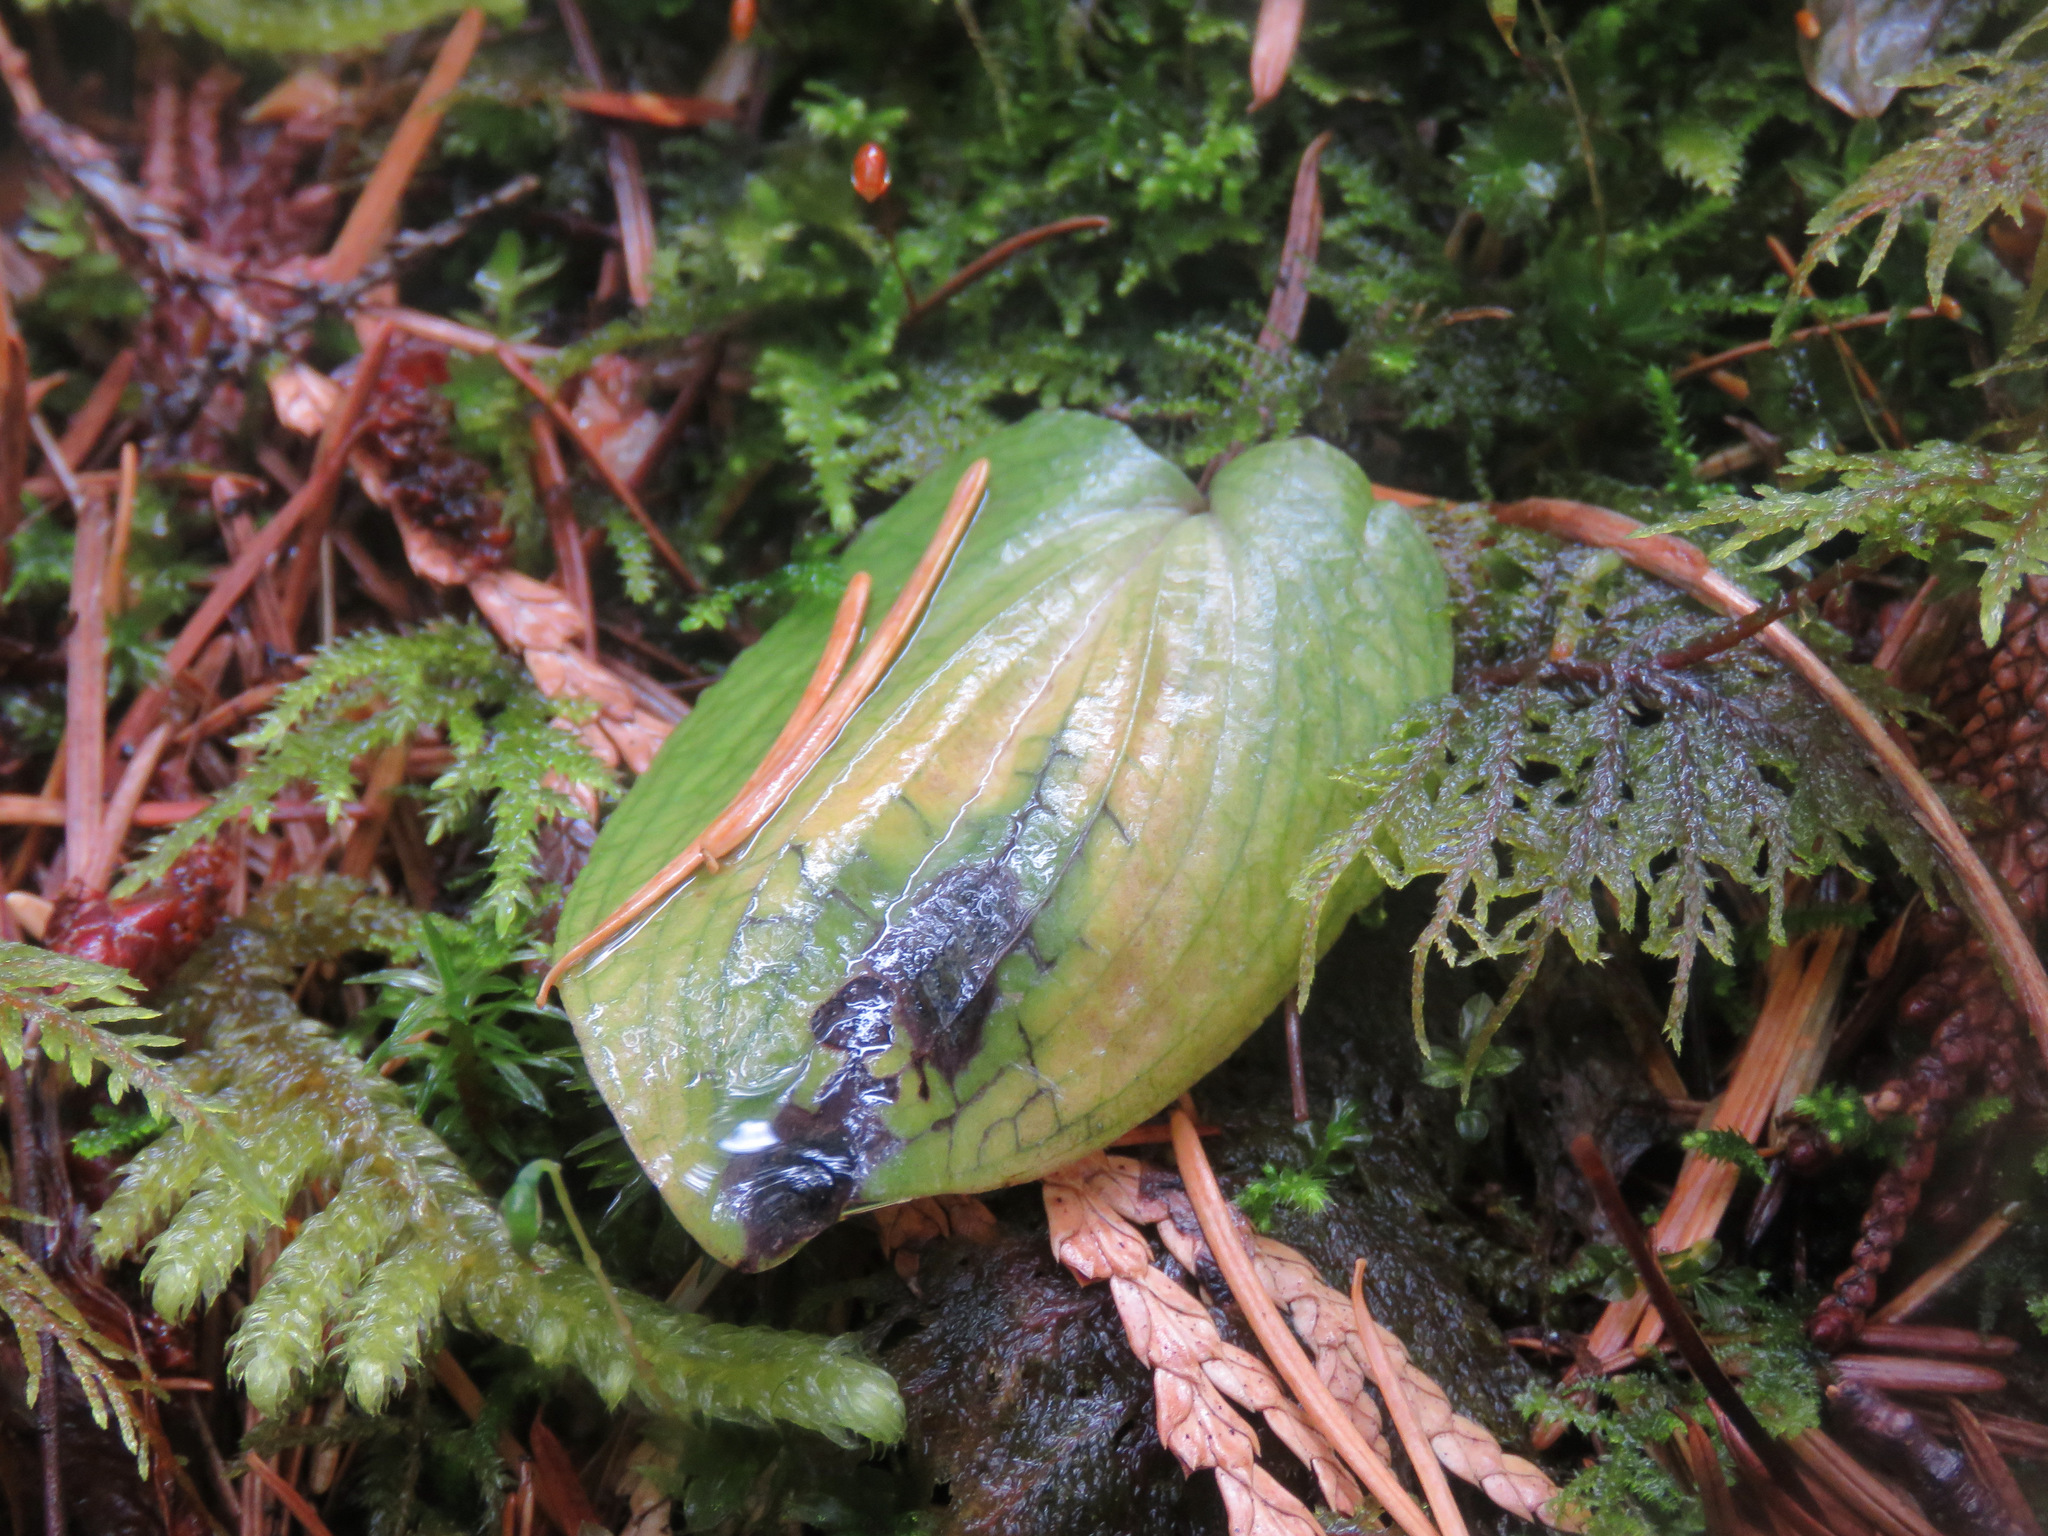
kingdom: Plantae
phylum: Tracheophyta
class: Liliopsida
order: Asparagales
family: Orchidaceae
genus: Calypso
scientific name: Calypso bulbosa
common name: Calypso
